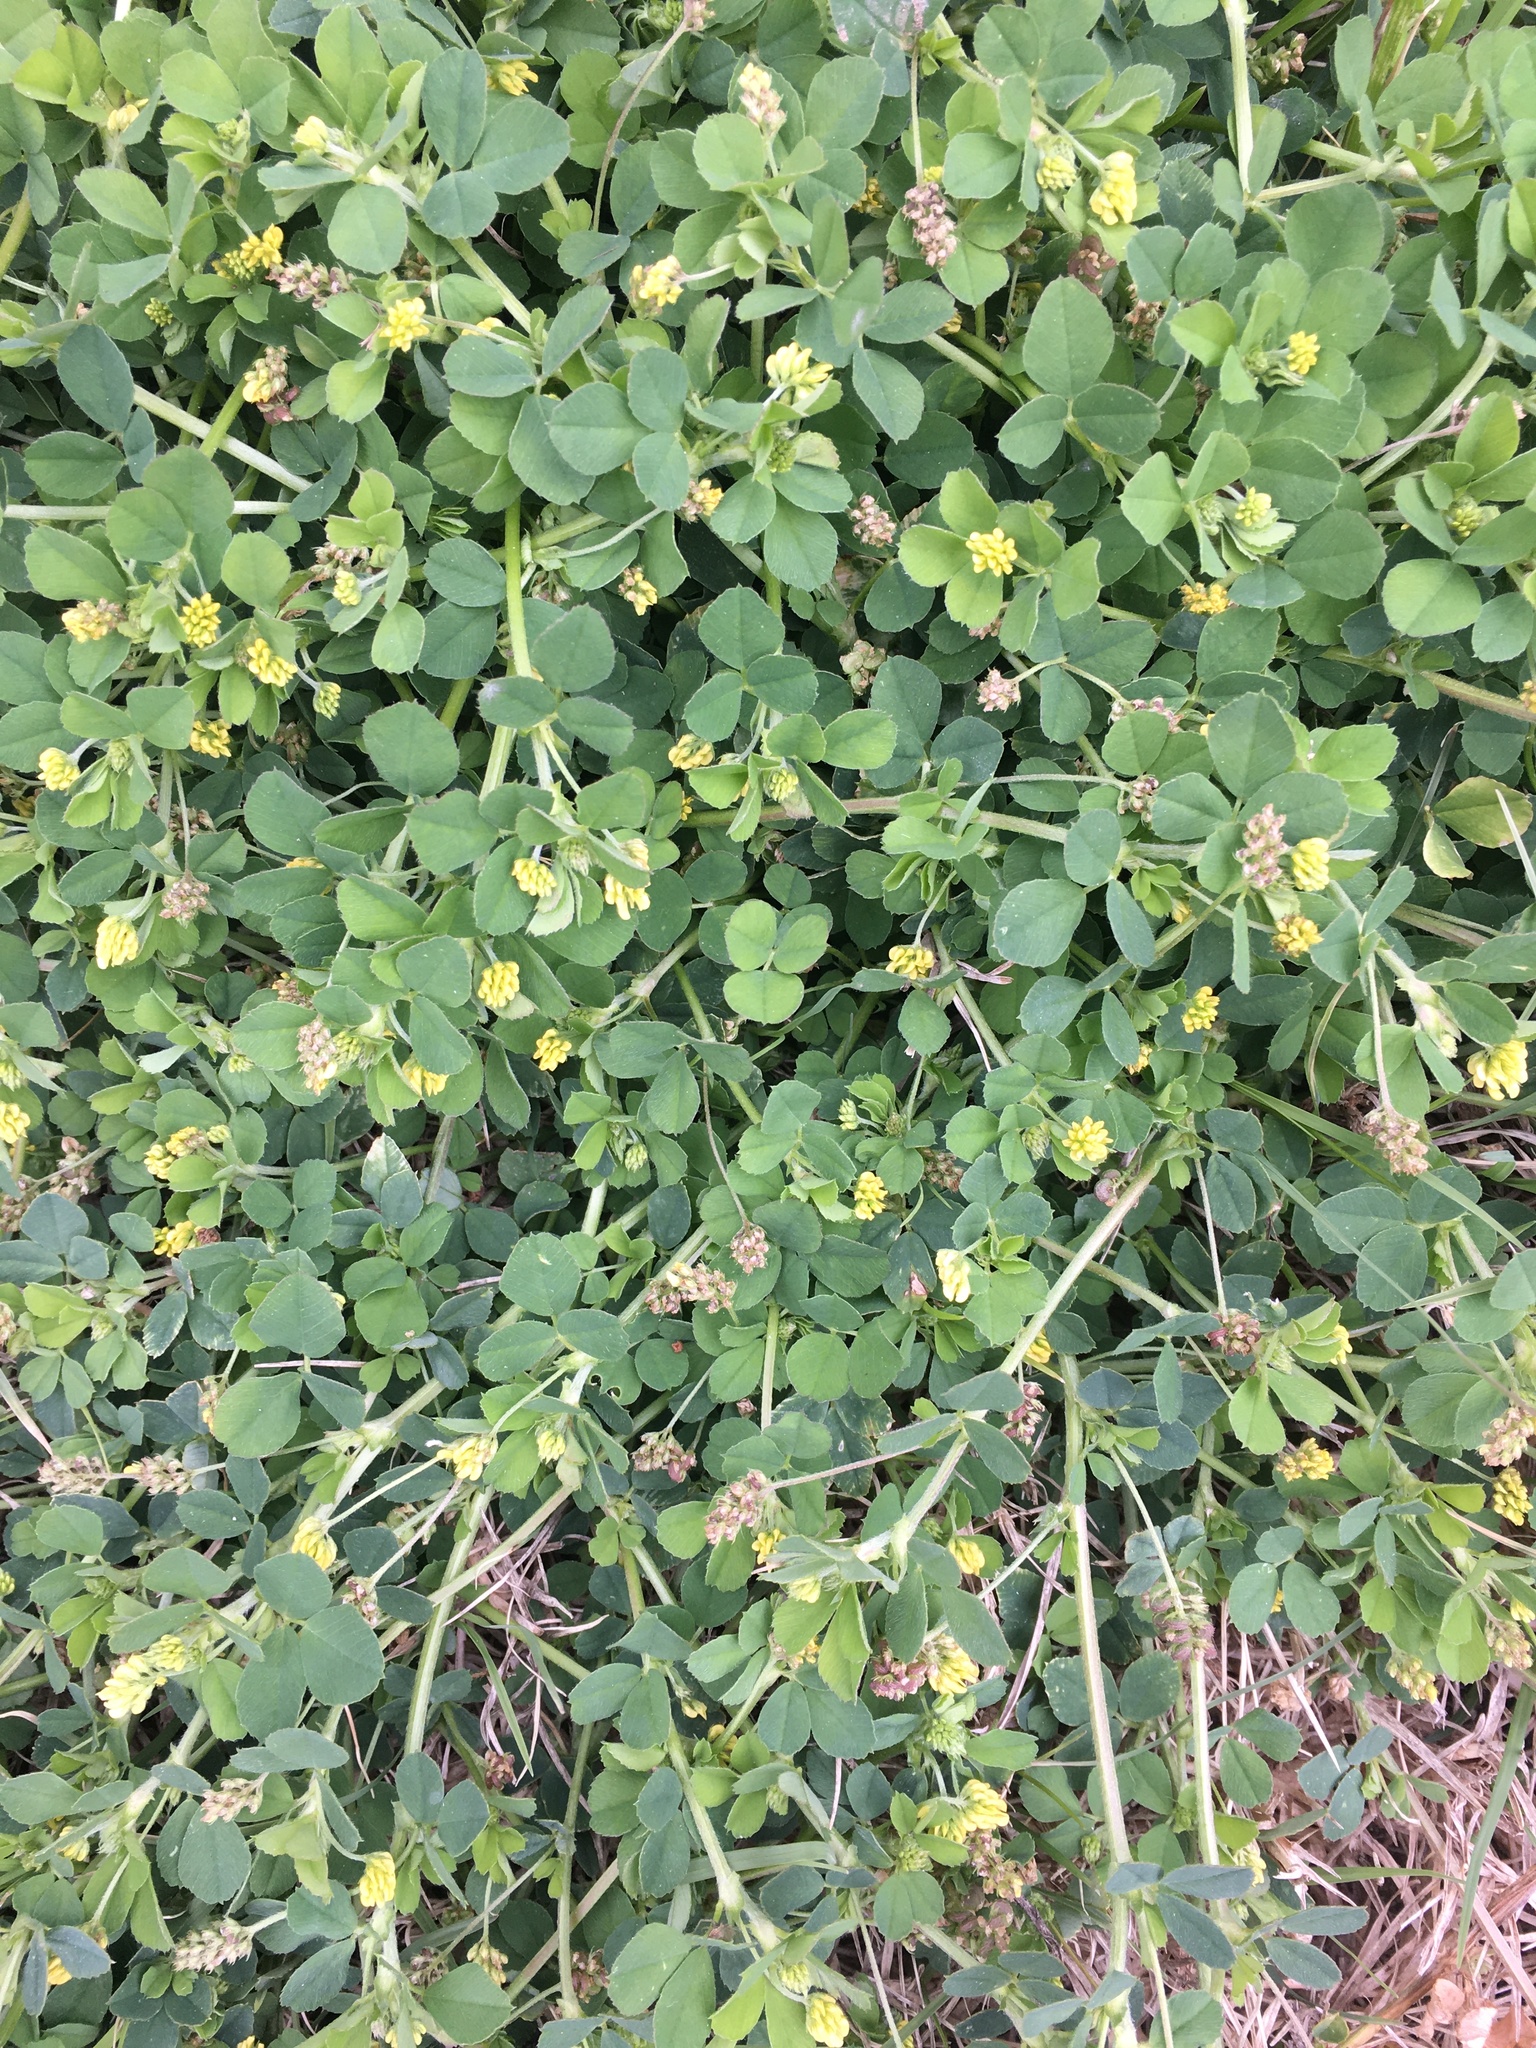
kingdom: Plantae
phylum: Tracheophyta
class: Magnoliopsida
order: Fabales
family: Fabaceae
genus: Medicago
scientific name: Medicago lupulina
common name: Black medick
